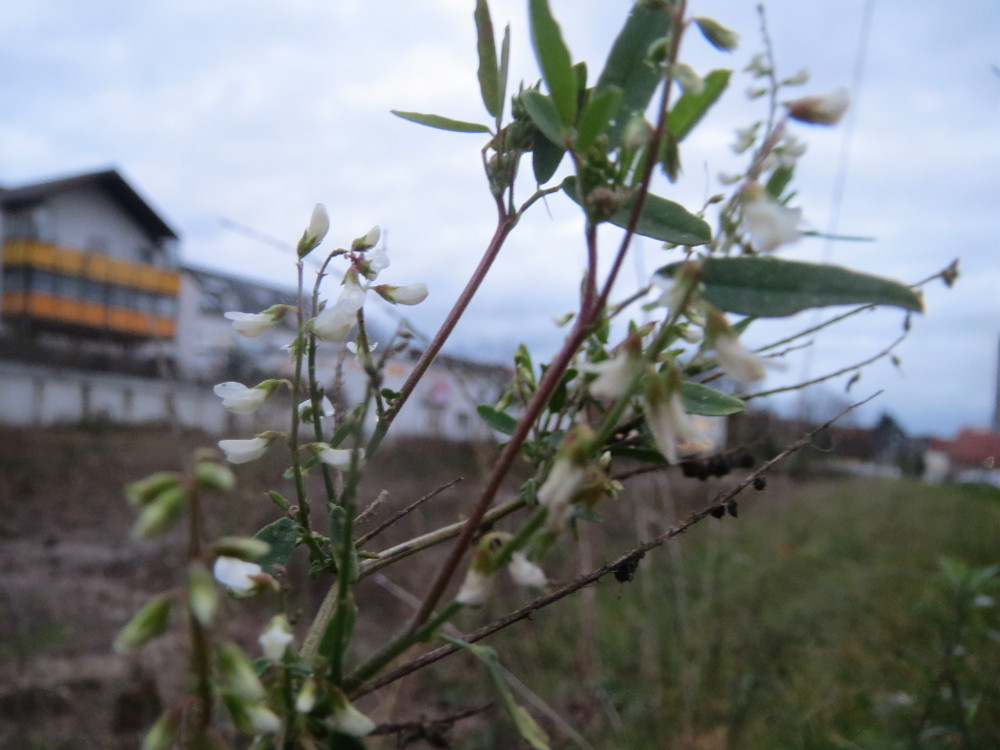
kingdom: Plantae
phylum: Tracheophyta
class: Magnoliopsida
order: Fabales
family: Fabaceae
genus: Melilotus
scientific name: Melilotus albus
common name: White melilot
